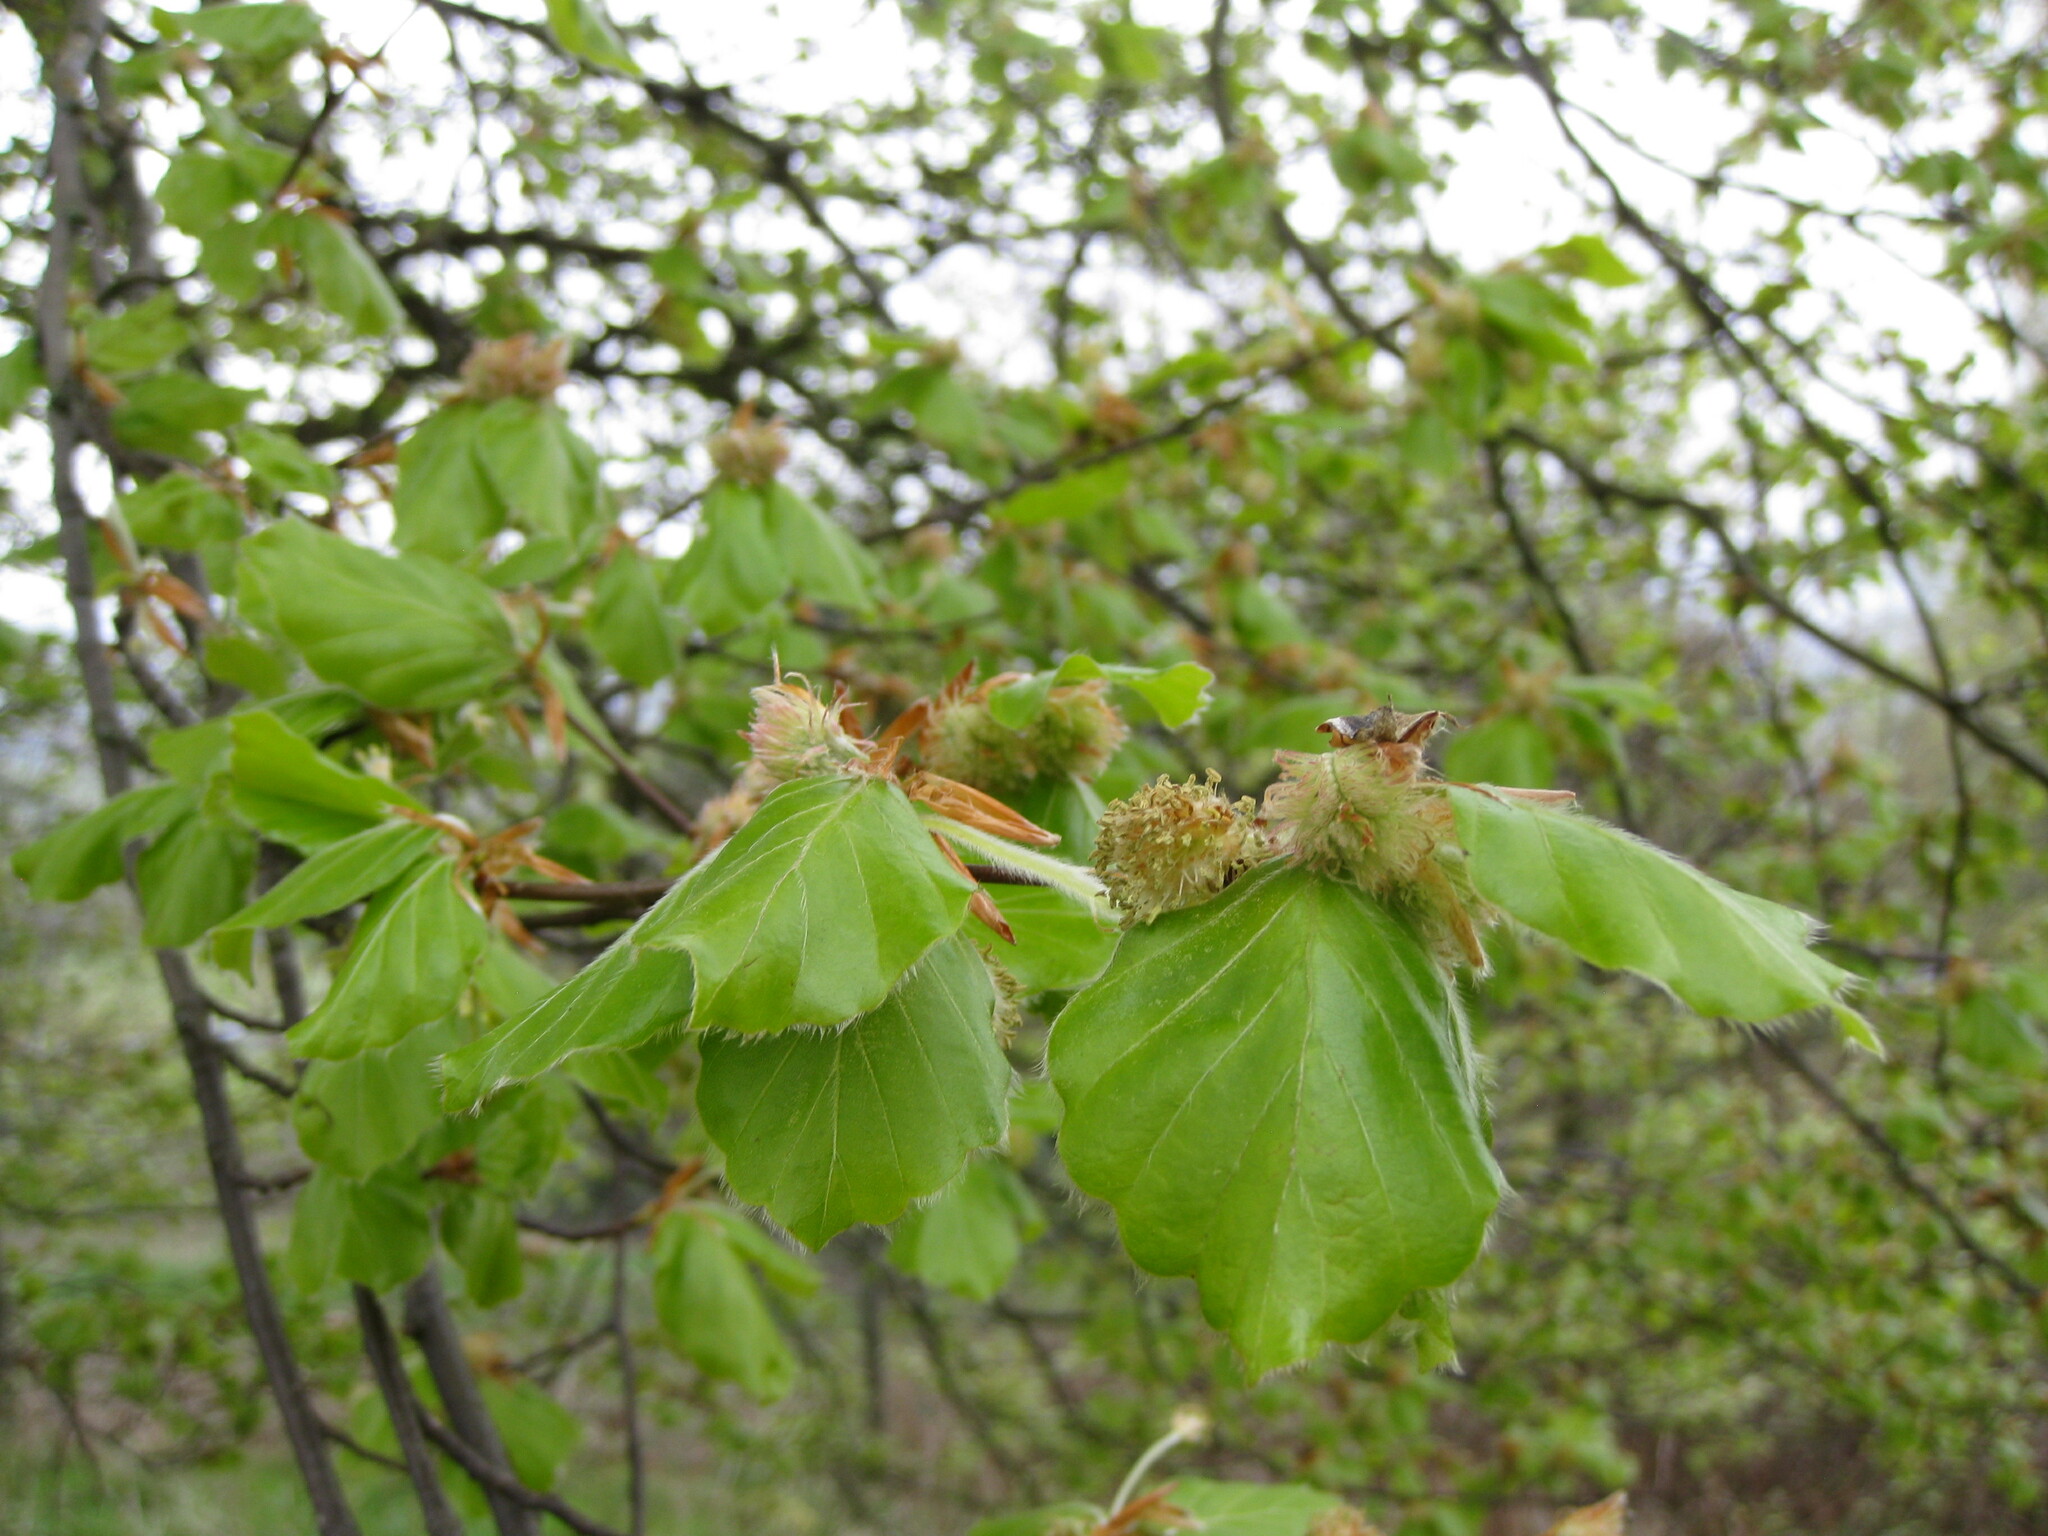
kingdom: Plantae
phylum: Tracheophyta
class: Magnoliopsida
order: Fagales
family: Fagaceae
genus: Fagus
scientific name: Fagus sylvatica
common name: Beech
